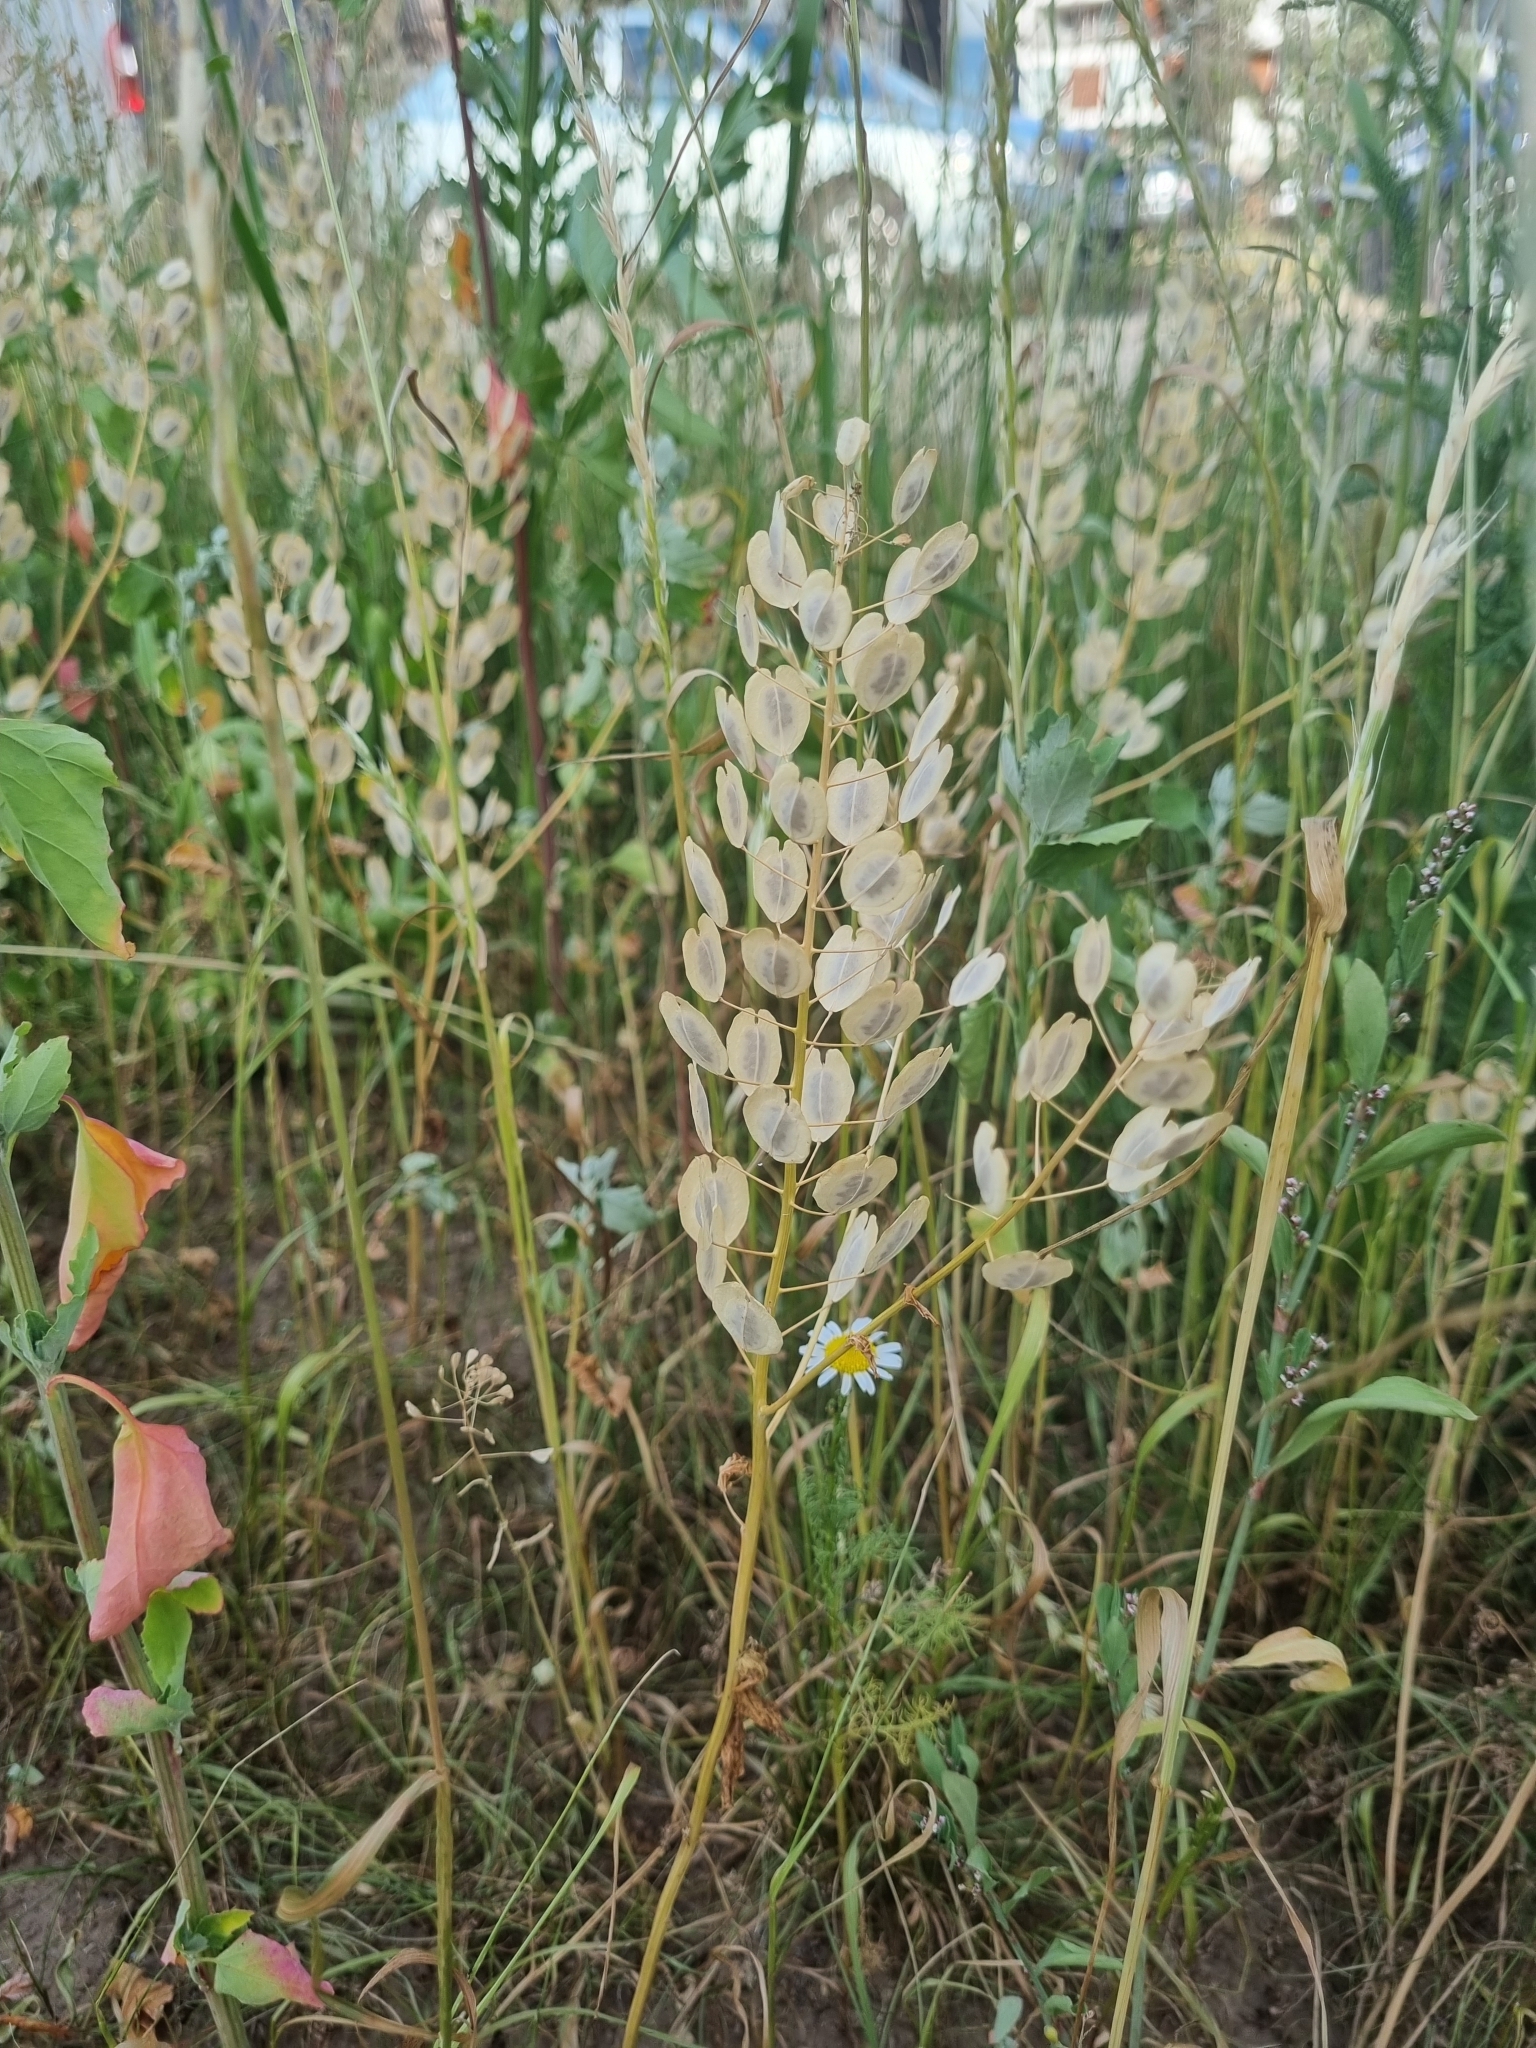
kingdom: Plantae
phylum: Tracheophyta
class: Magnoliopsida
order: Brassicales
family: Brassicaceae
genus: Thlaspi
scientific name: Thlaspi arvense
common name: Field pennycress
